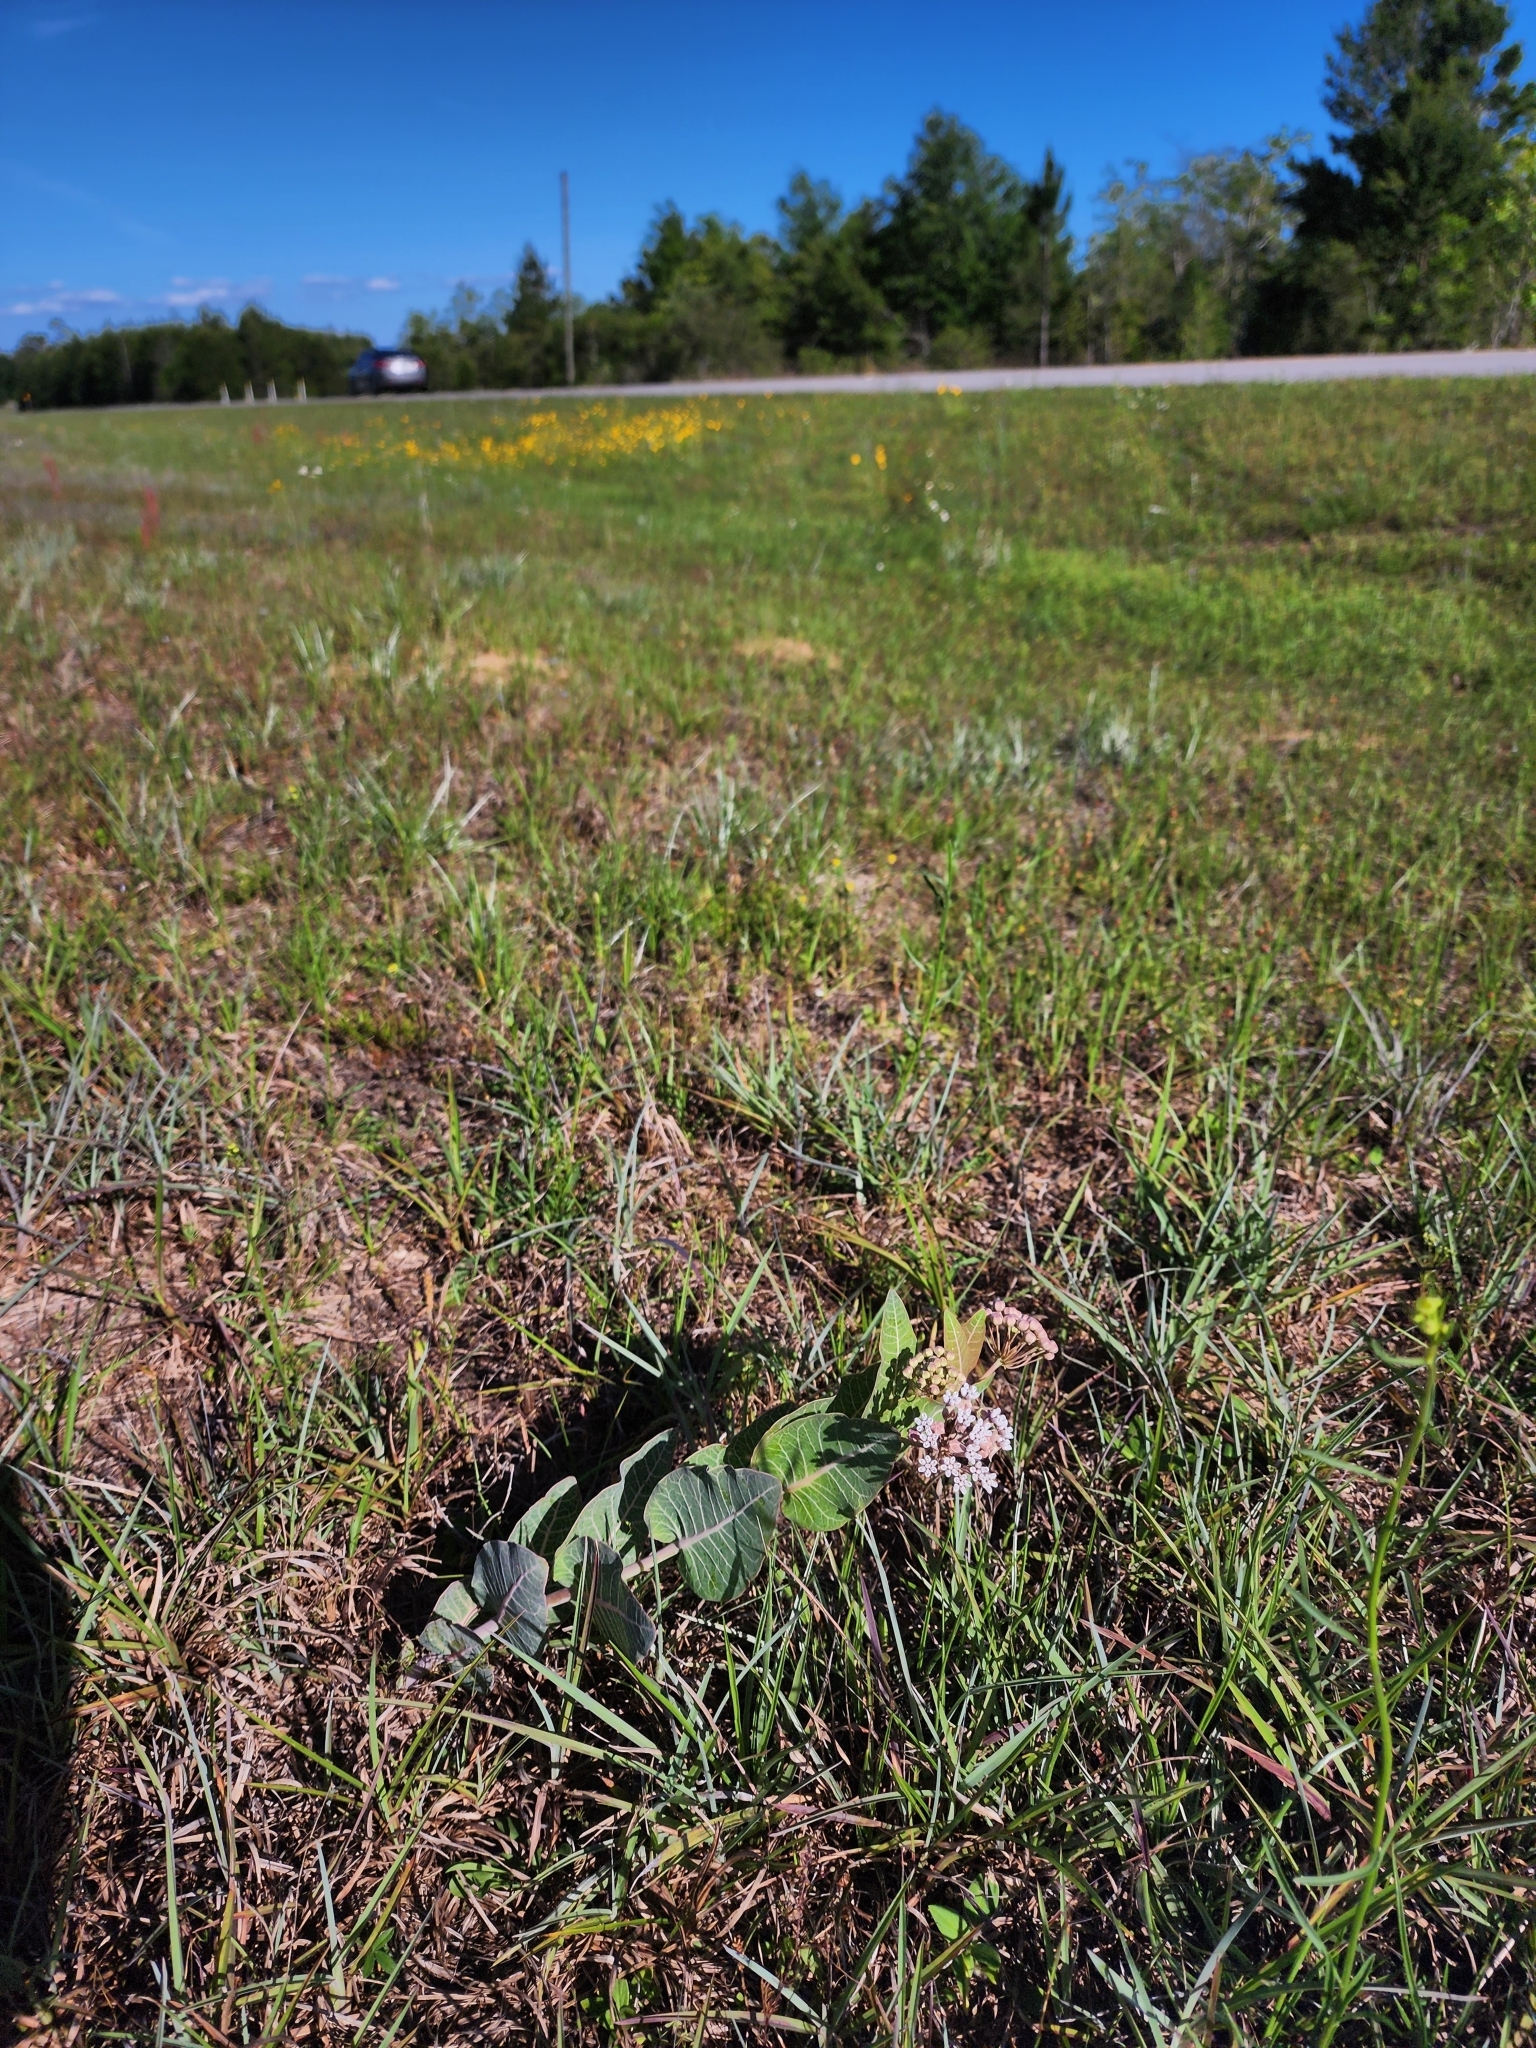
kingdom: Plantae
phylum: Tracheophyta
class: Magnoliopsida
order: Gentianales
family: Apocynaceae
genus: Asclepias
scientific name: Asclepias humistrata
